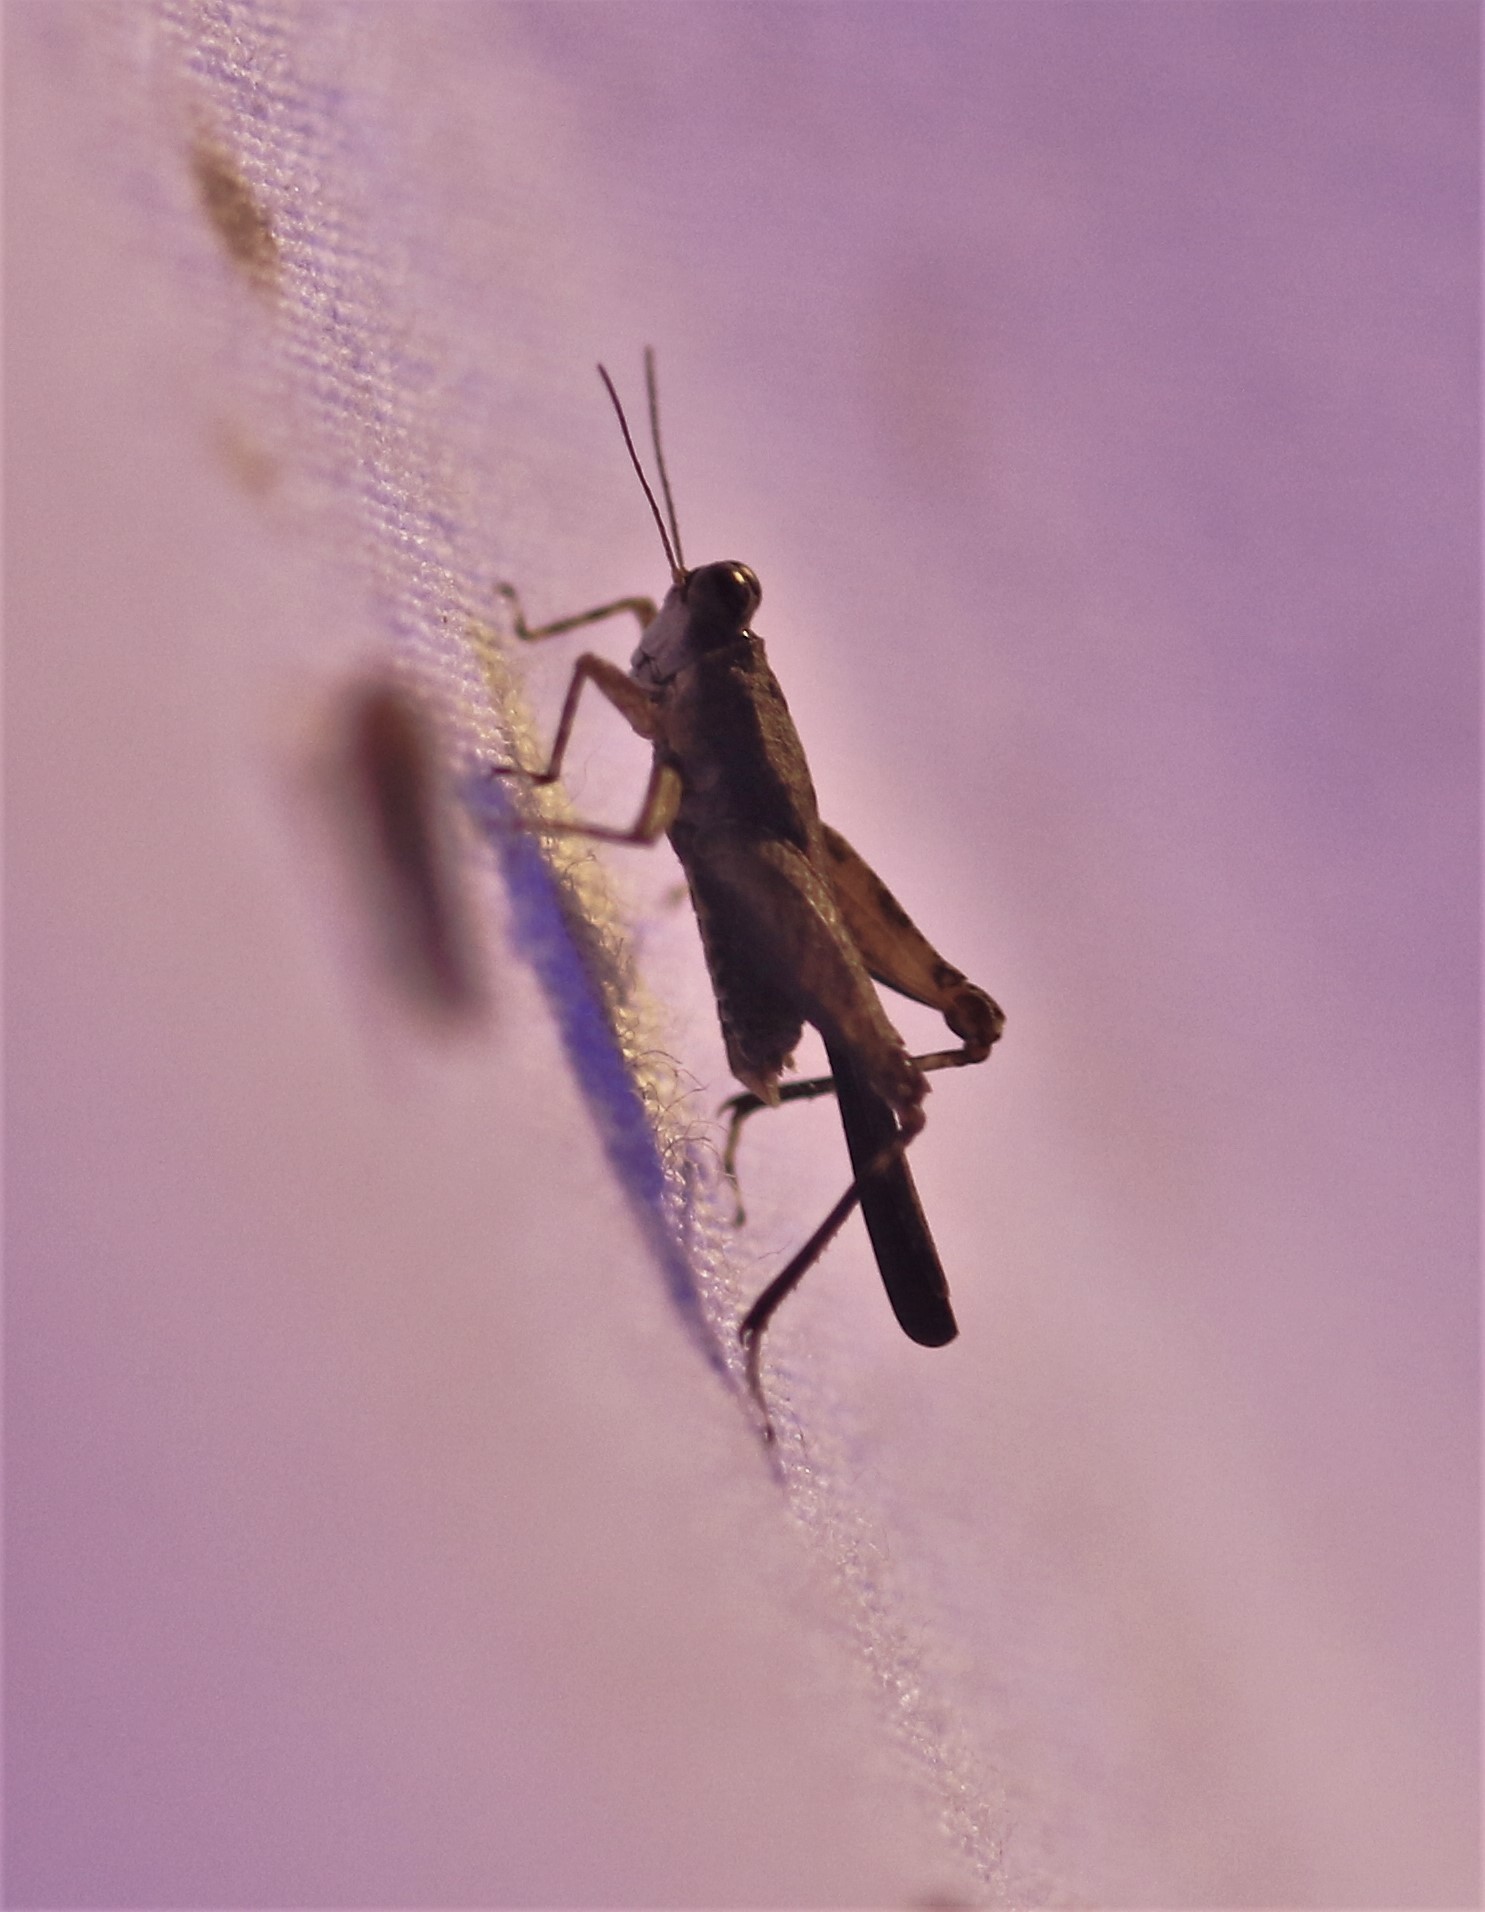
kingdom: Animalia
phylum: Arthropoda
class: Insecta
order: Orthoptera
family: Tetrigidae
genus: Paratettix
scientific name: Paratettix aztecus
